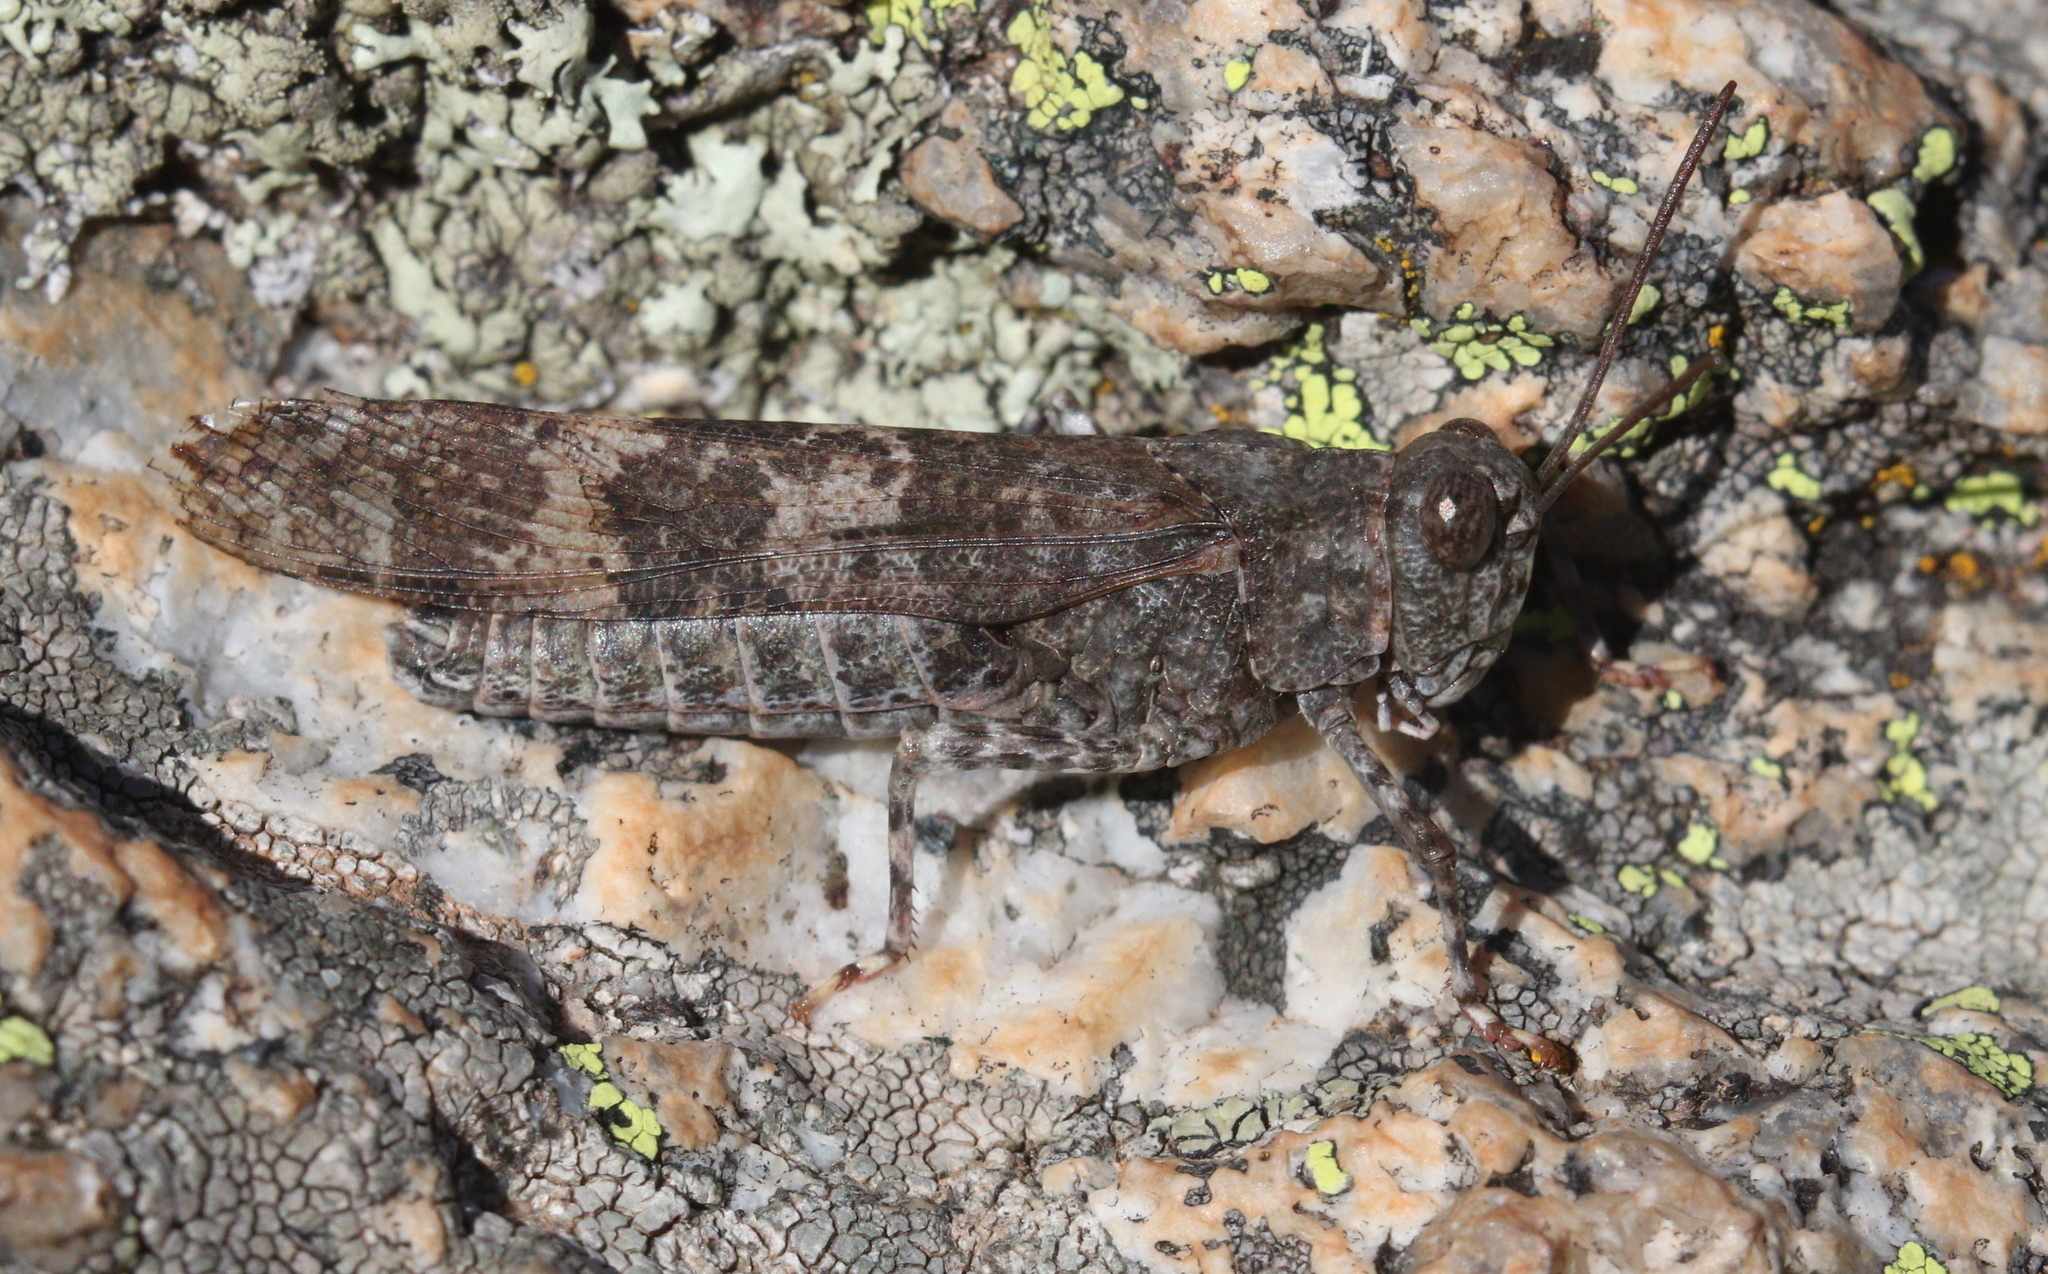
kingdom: Animalia
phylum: Arthropoda
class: Insecta
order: Orthoptera
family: Acrididae
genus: Oedipoda
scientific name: Oedipoda coerulea
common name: Iberian band-winged grasshopper
